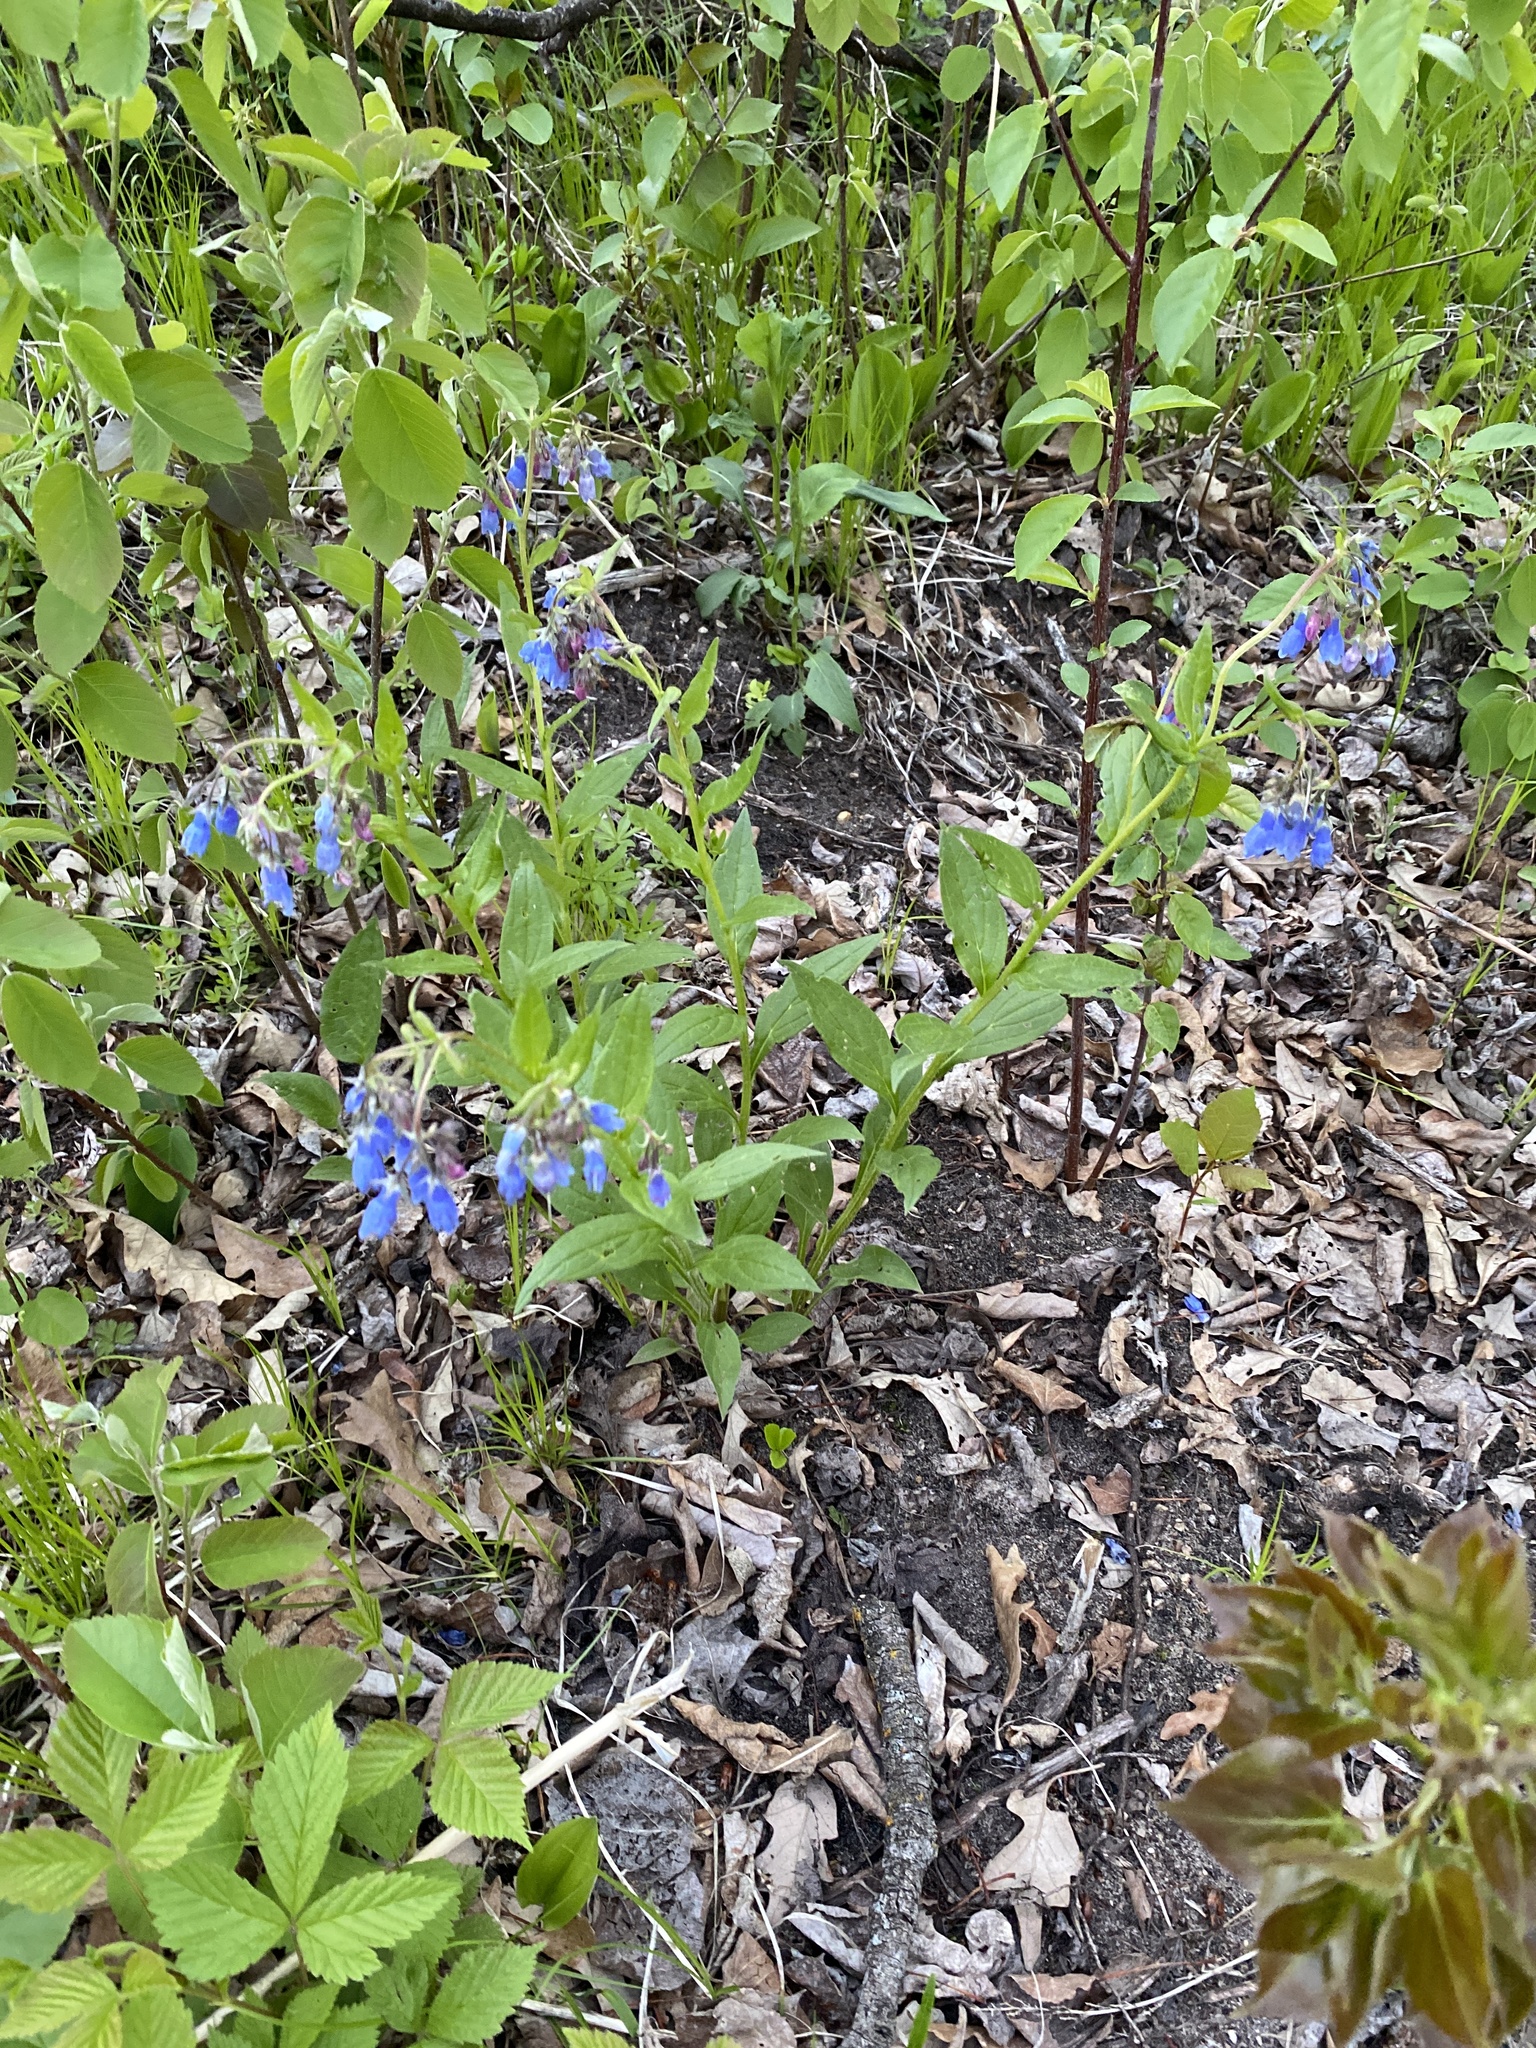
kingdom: Plantae
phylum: Tracheophyta
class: Magnoliopsida
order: Boraginales
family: Boraginaceae
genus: Mertensia
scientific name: Mertensia paniculata
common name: Panicled bluebells
